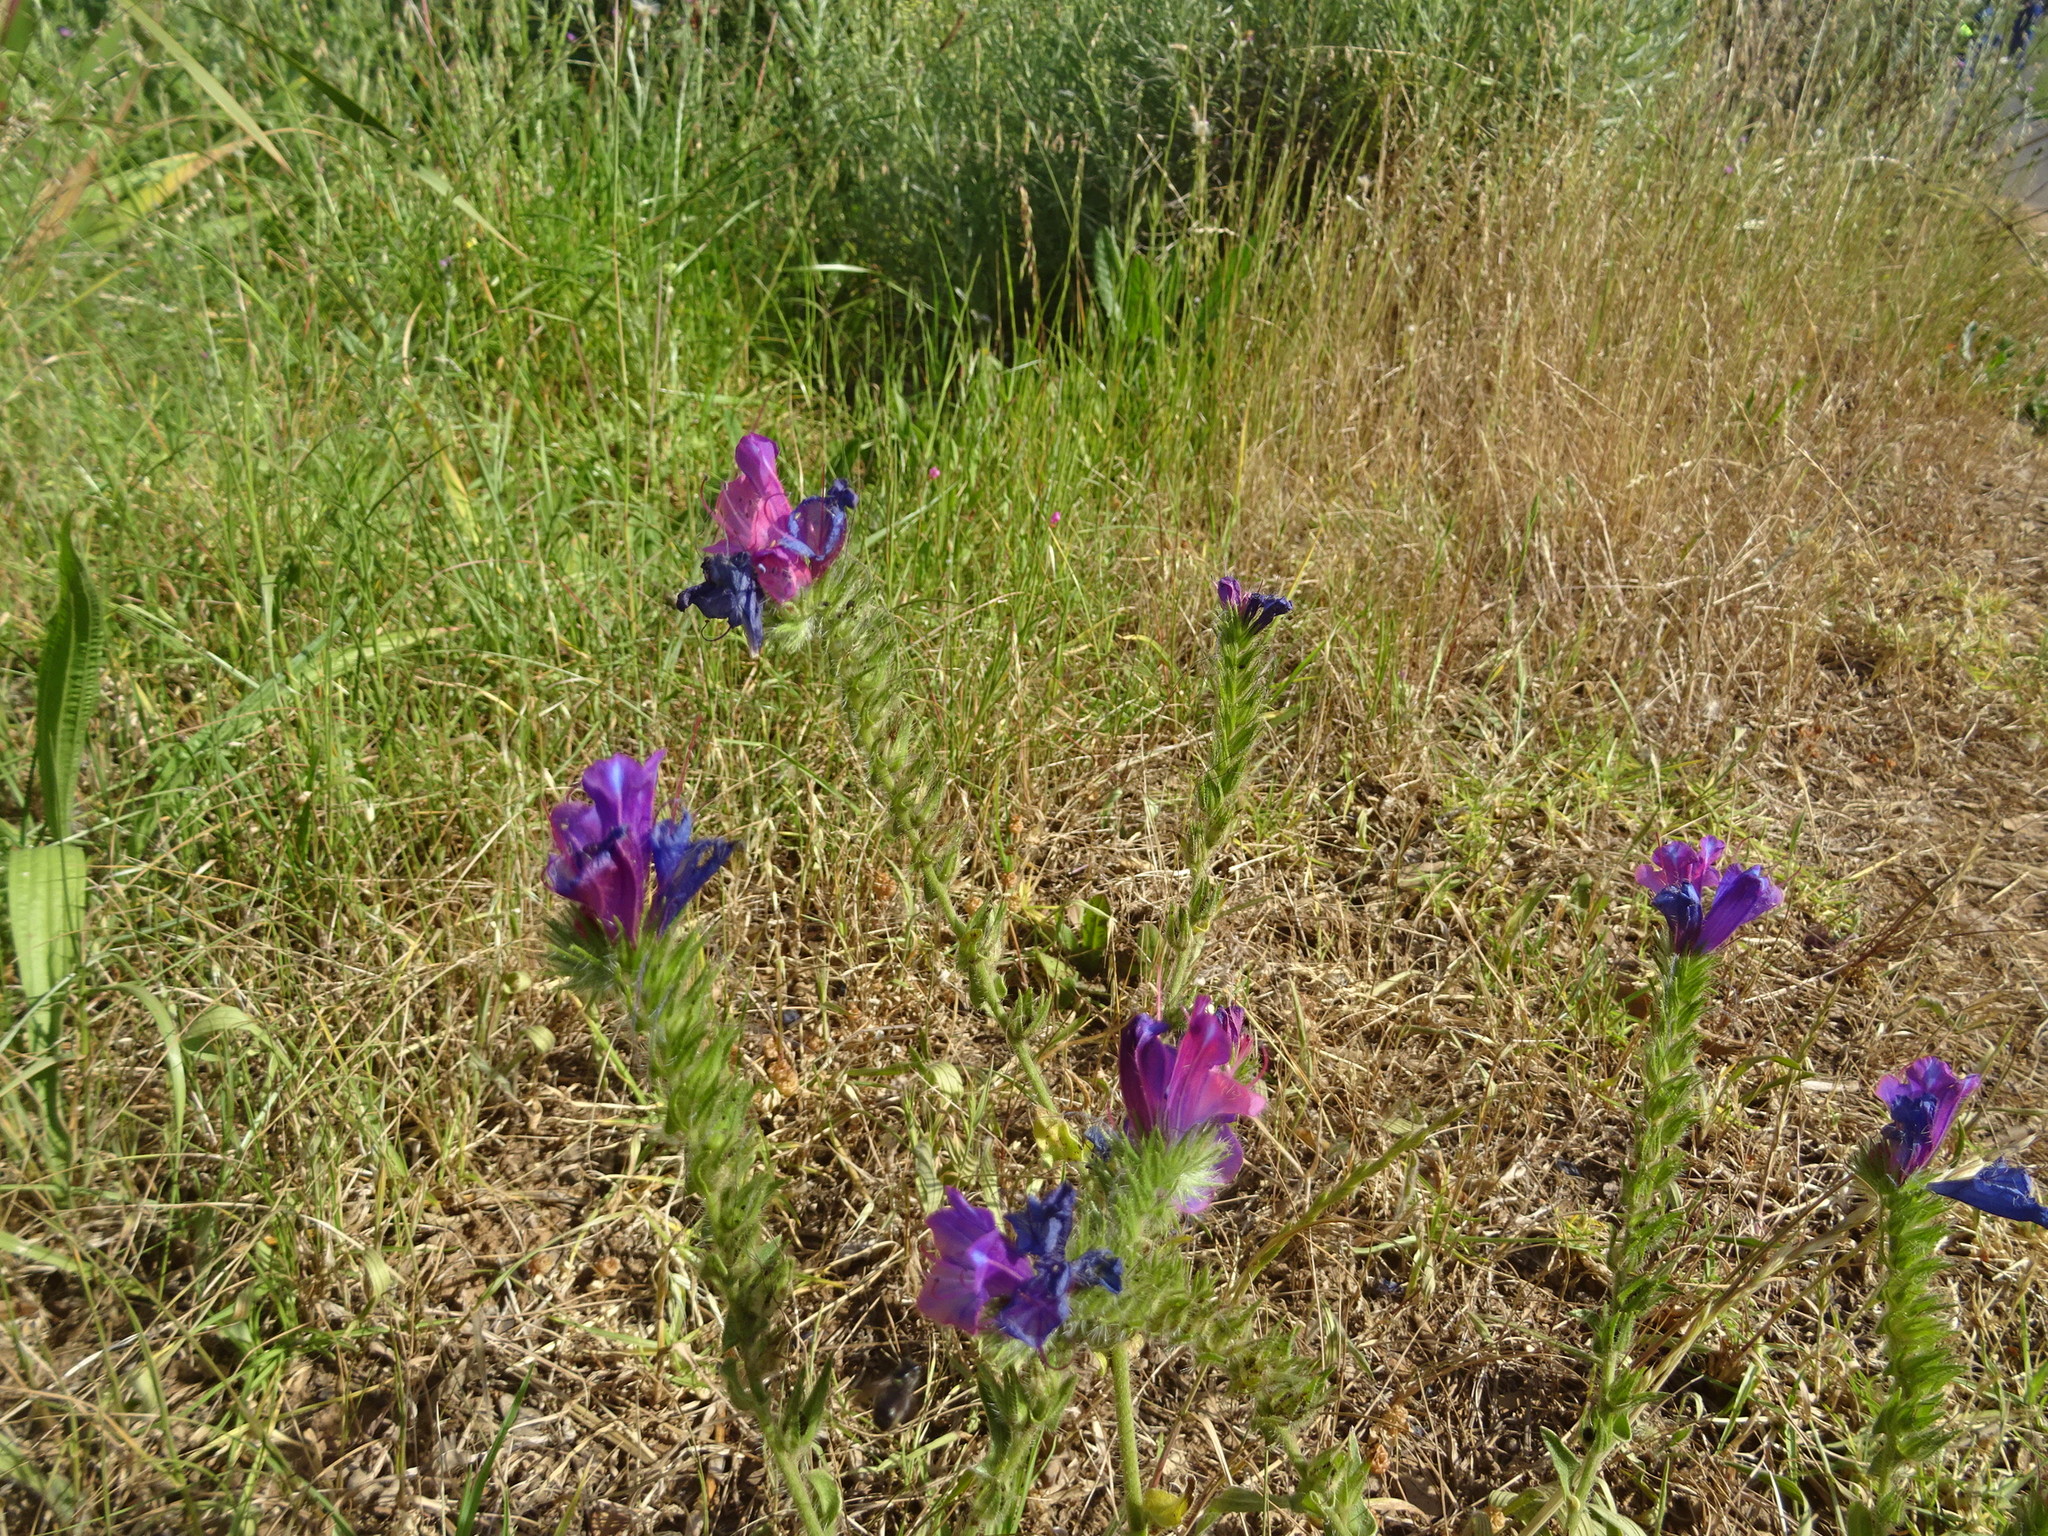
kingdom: Plantae
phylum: Tracheophyta
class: Magnoliopsida
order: Boraginales
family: Boraginaceae
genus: Echium
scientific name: Echium plantagineum
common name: Purple viper's-bugloss
